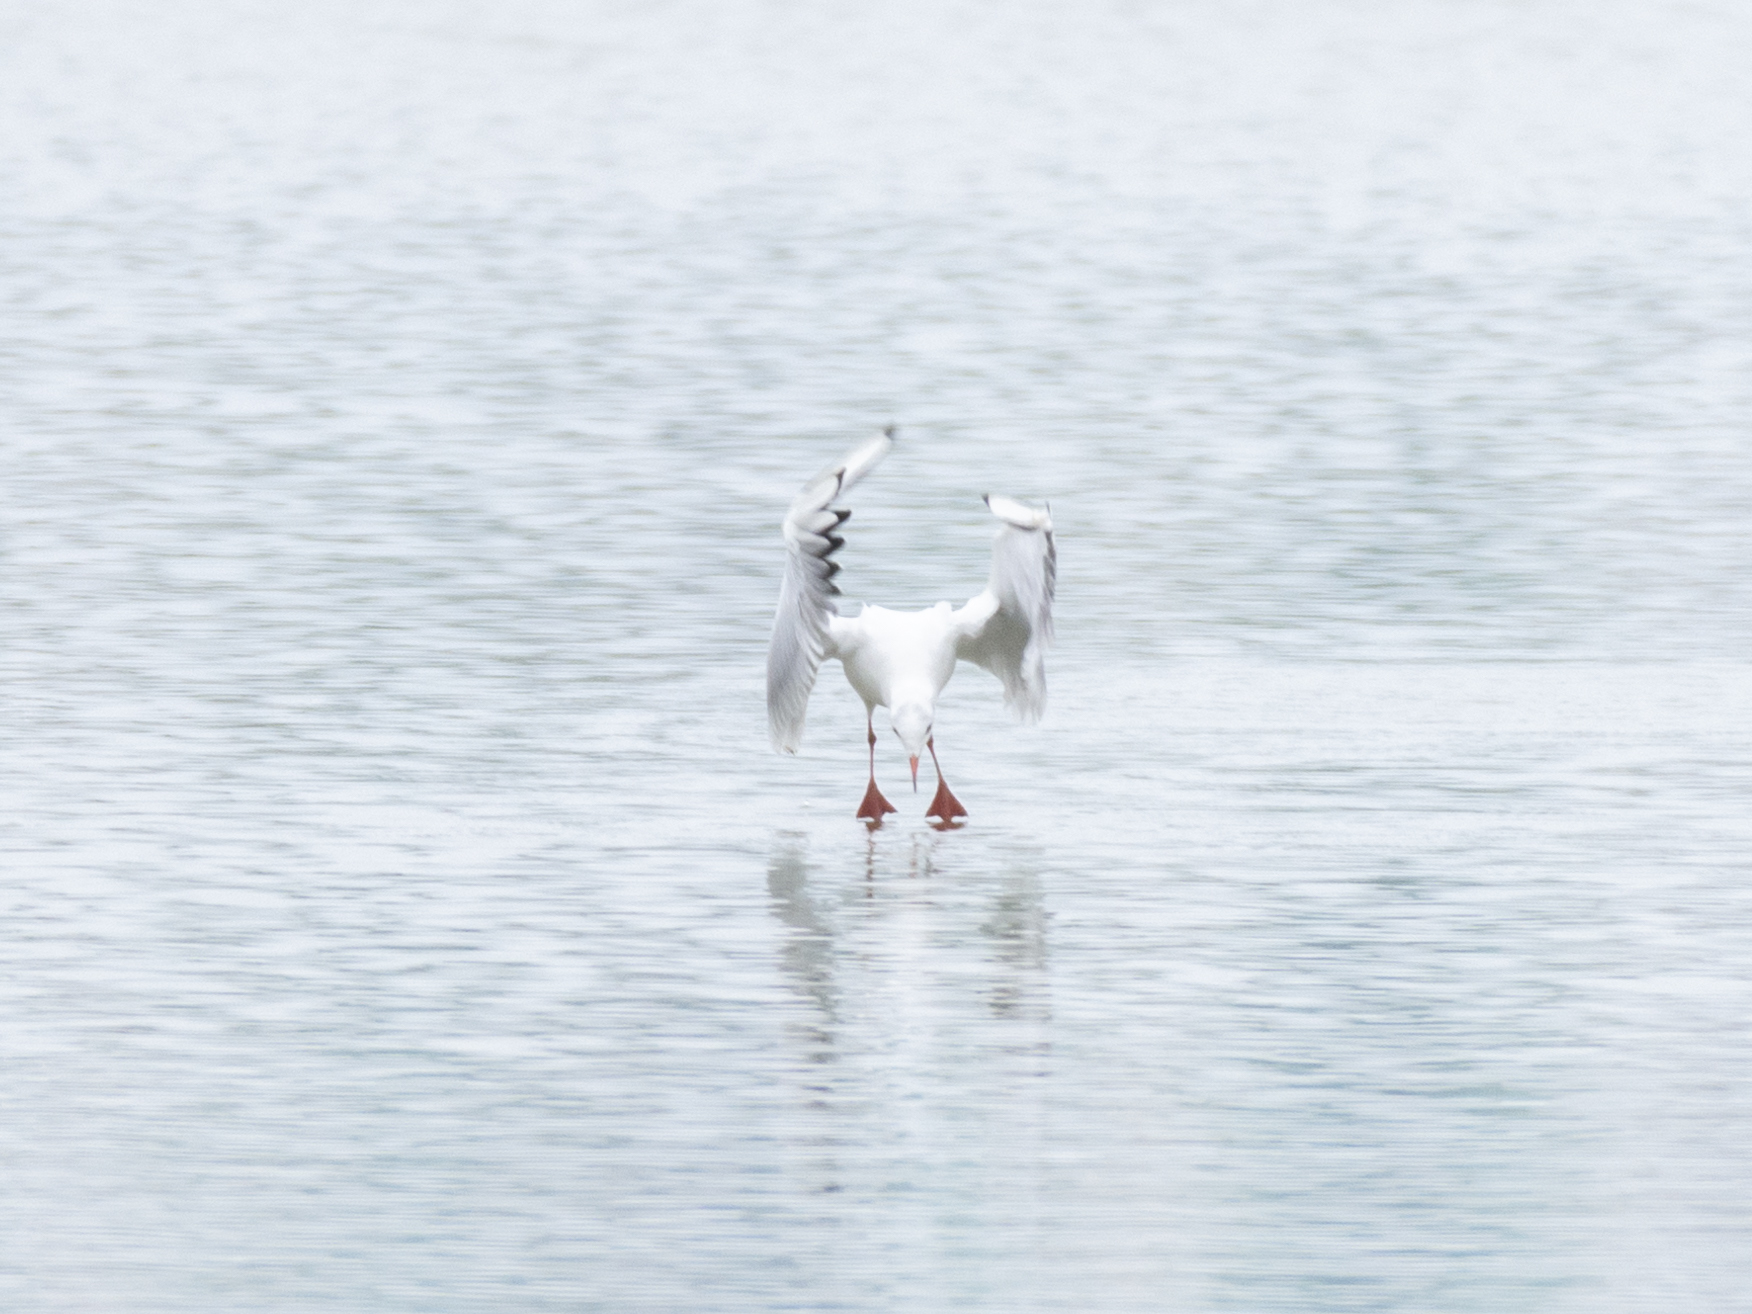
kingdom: Animalia
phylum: Chordata
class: Aves
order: Charadriiformes
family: Laridae
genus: Chroicocephalus
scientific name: Chroicocephalus ridibundus
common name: Black-headed gull
